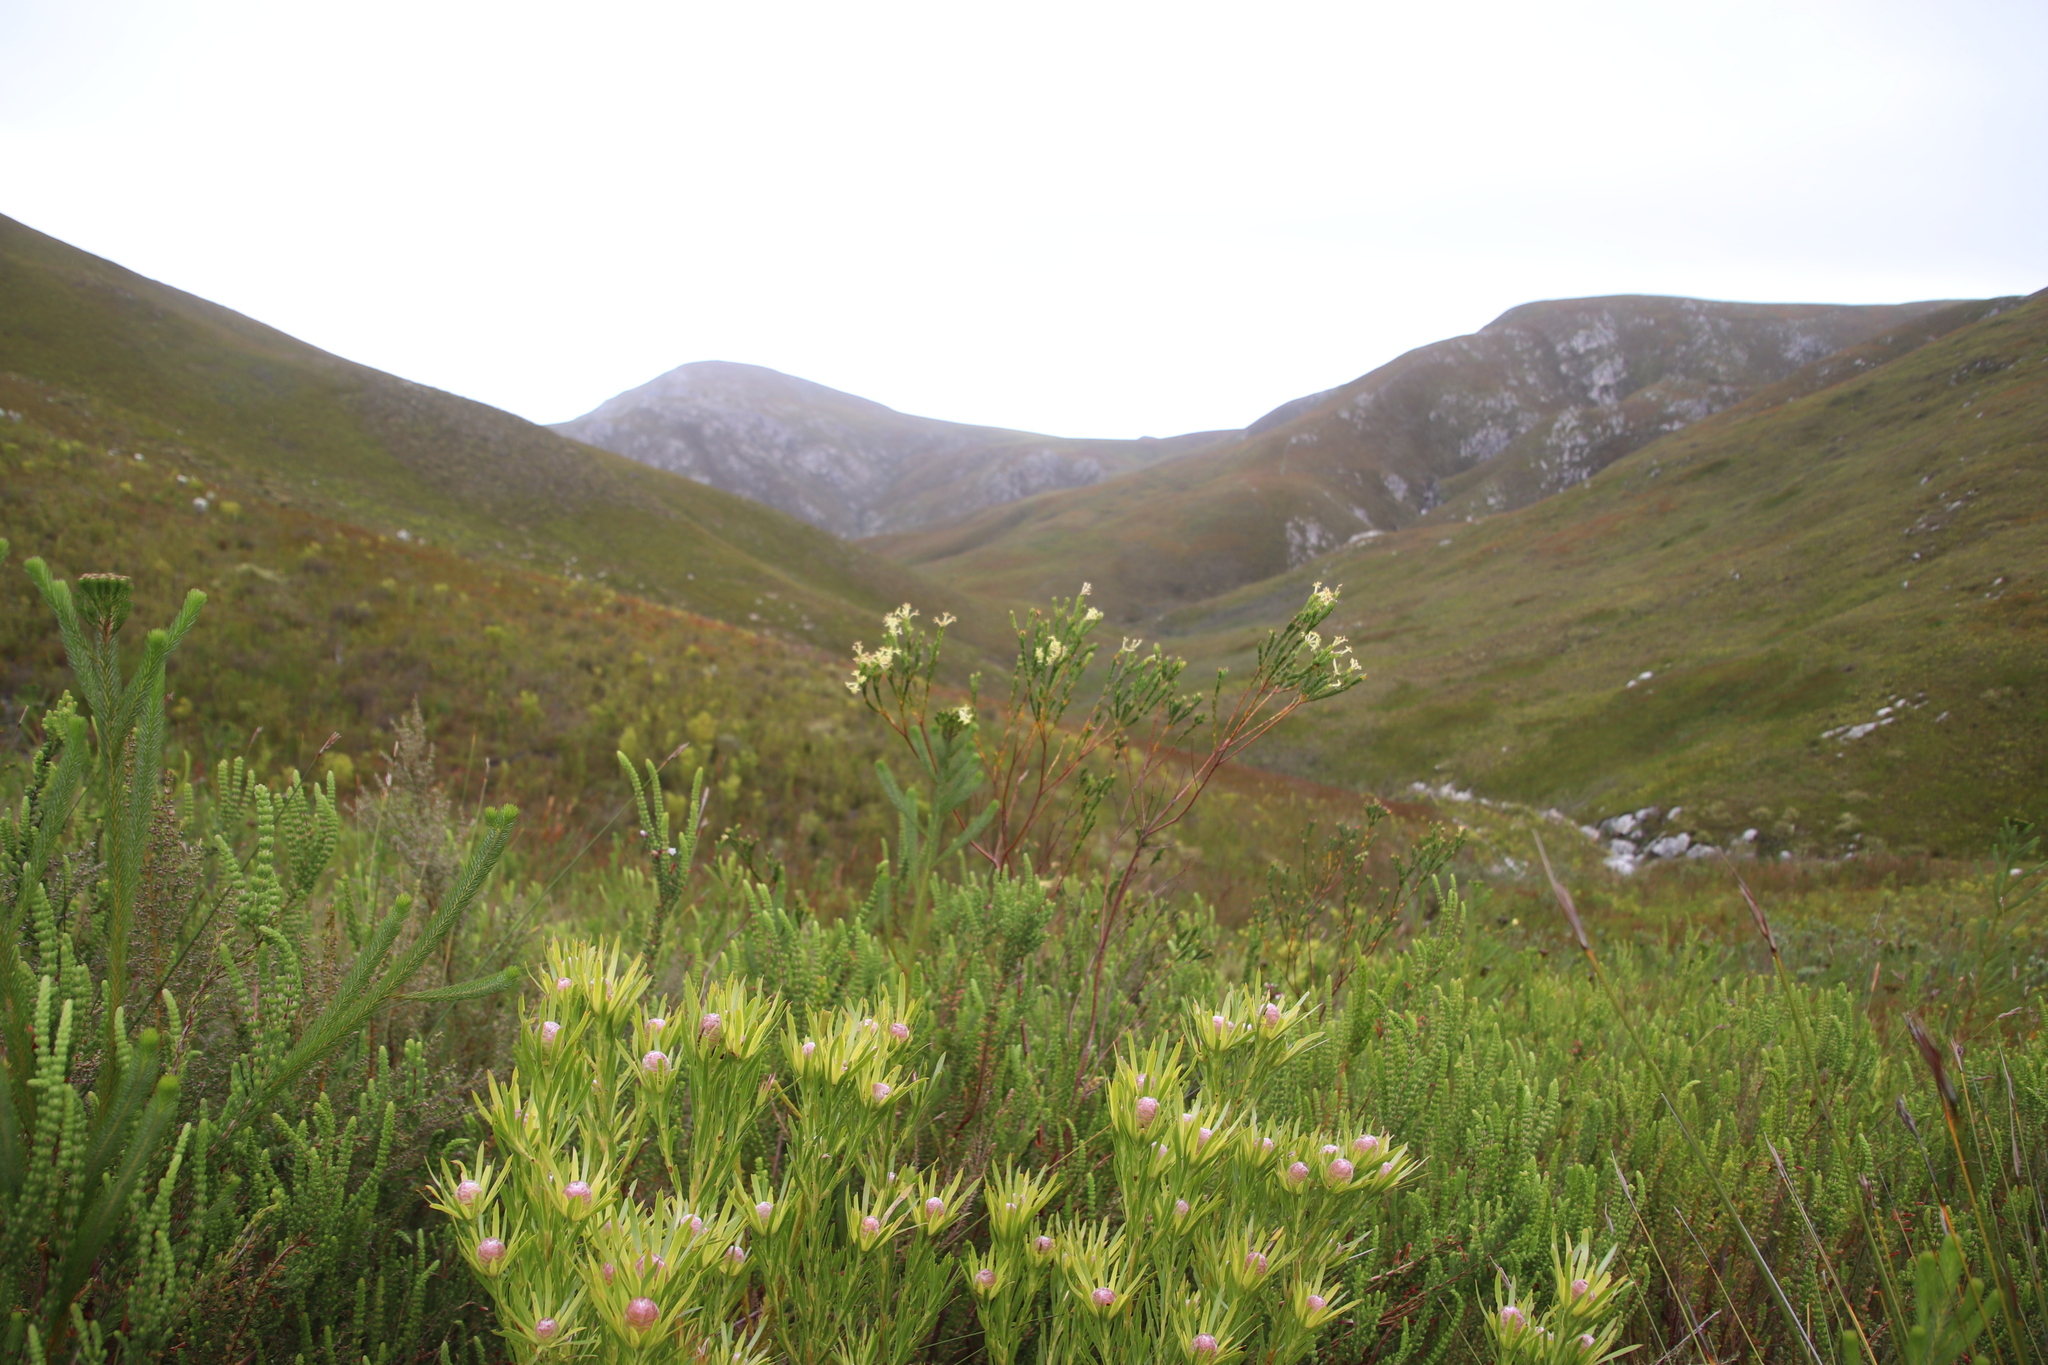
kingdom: Plantae
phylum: Tracheophyta
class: Magnoliopsida
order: Malvales
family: Thymelaeaceae
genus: Gnidia
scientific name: Gnidia oppositifolia
